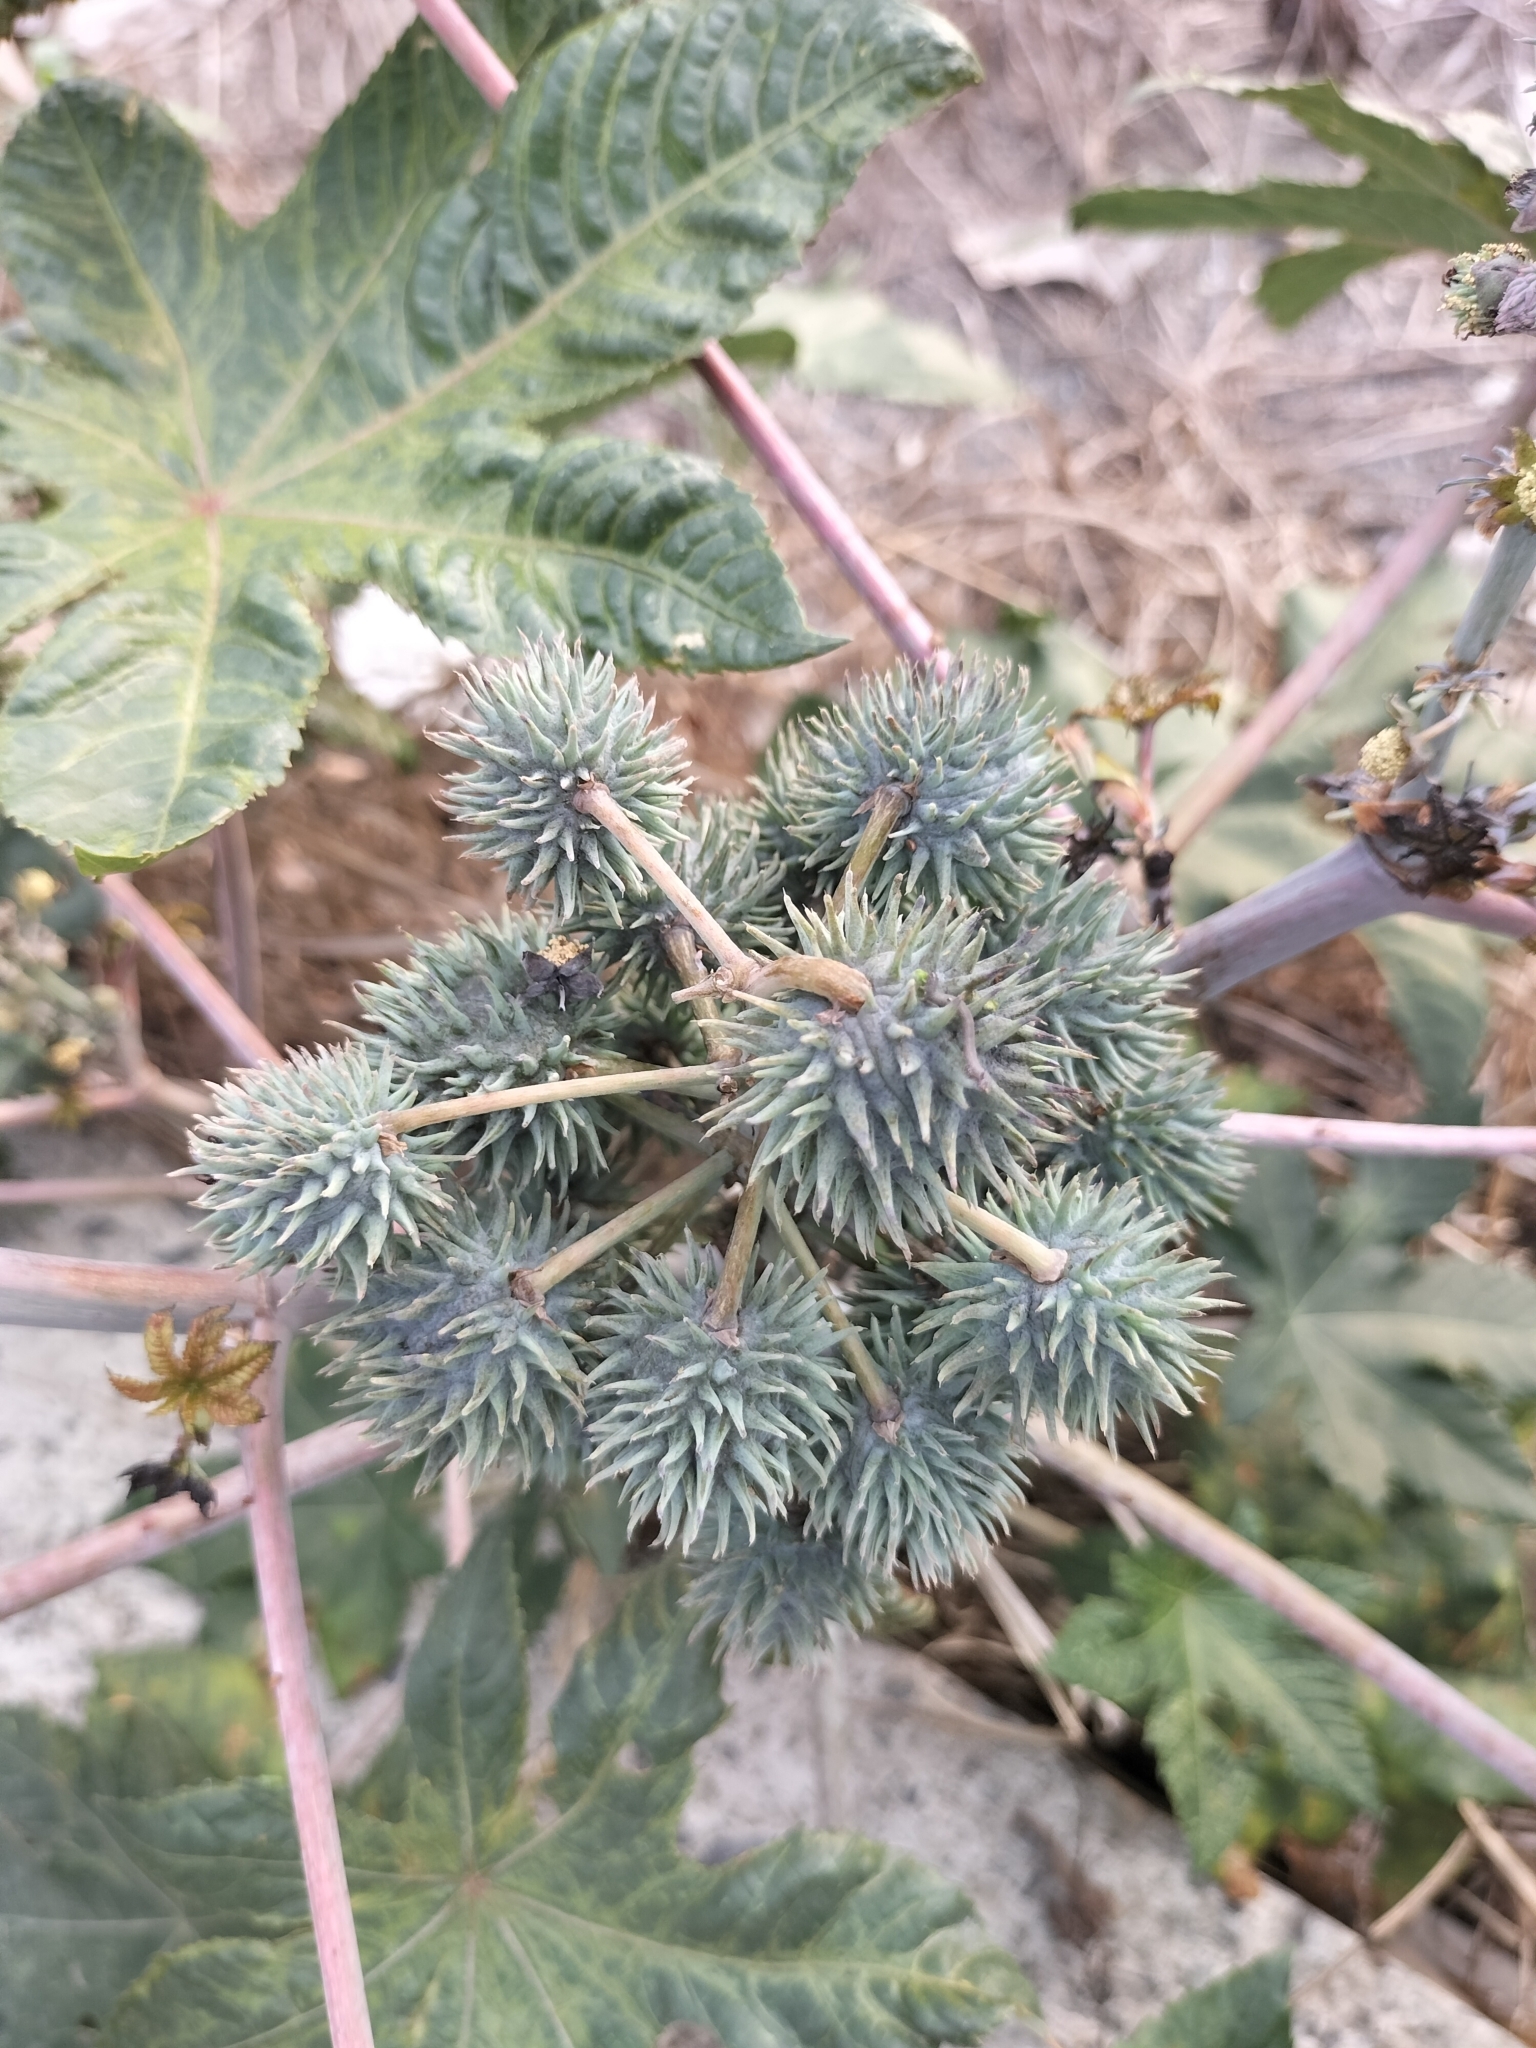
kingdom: Plantae
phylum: Tracheophyta
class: Magnoliopsida
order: Malpighiales
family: Euphorbiaceae
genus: Ricinus
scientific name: Ricinus communis
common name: Castor-oil-plant
